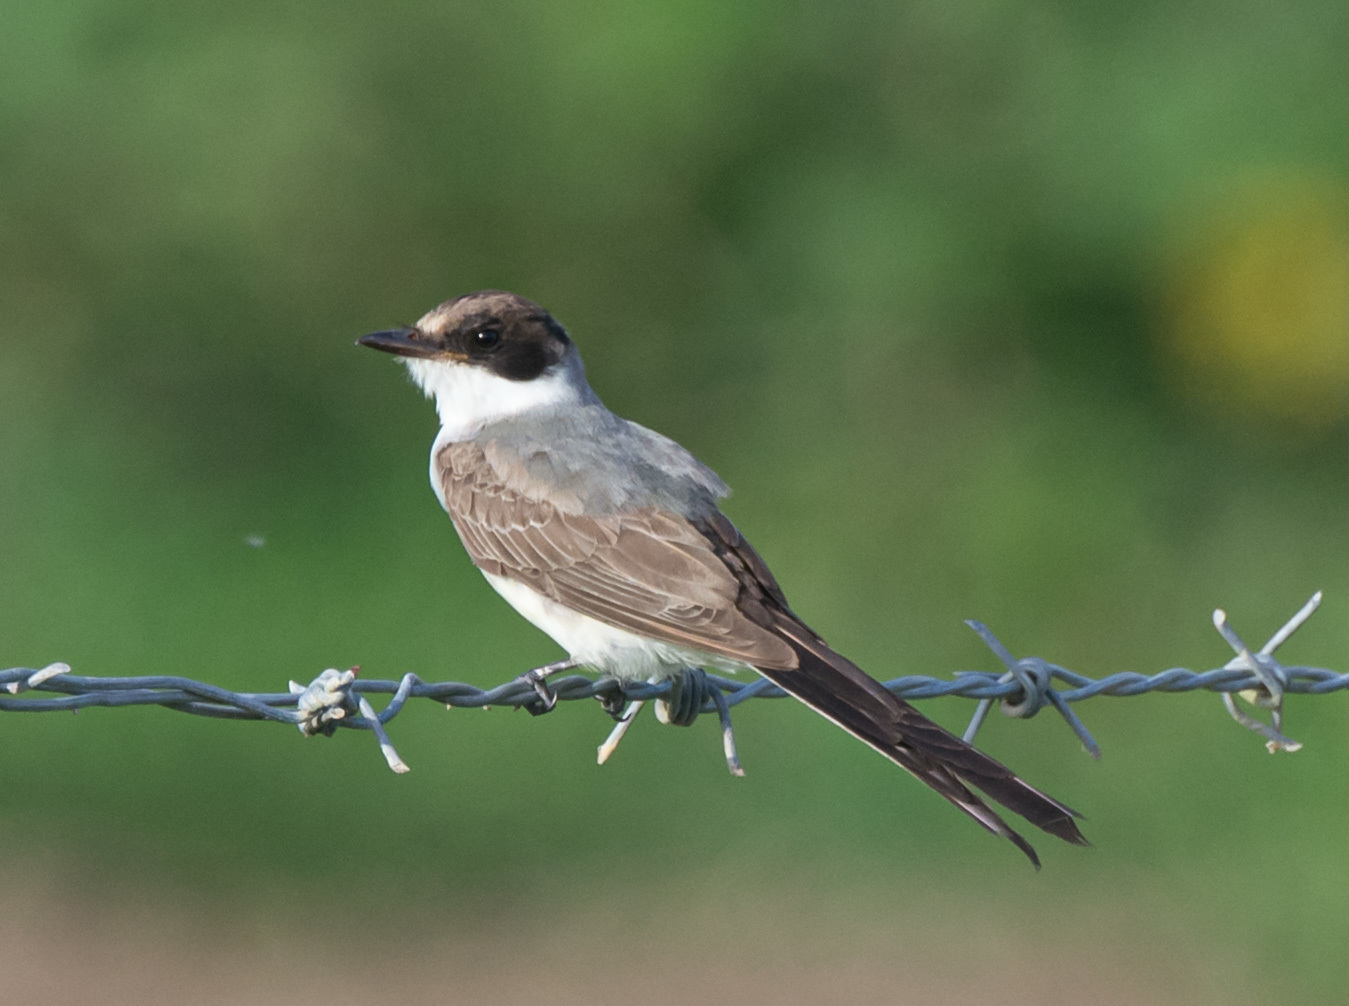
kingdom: Animalia
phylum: Chordata
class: Aves
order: Passeriformes
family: Tyrannidae
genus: Tyrannus
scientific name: Tyrannus savana
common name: Fork-tailed flycatcher
